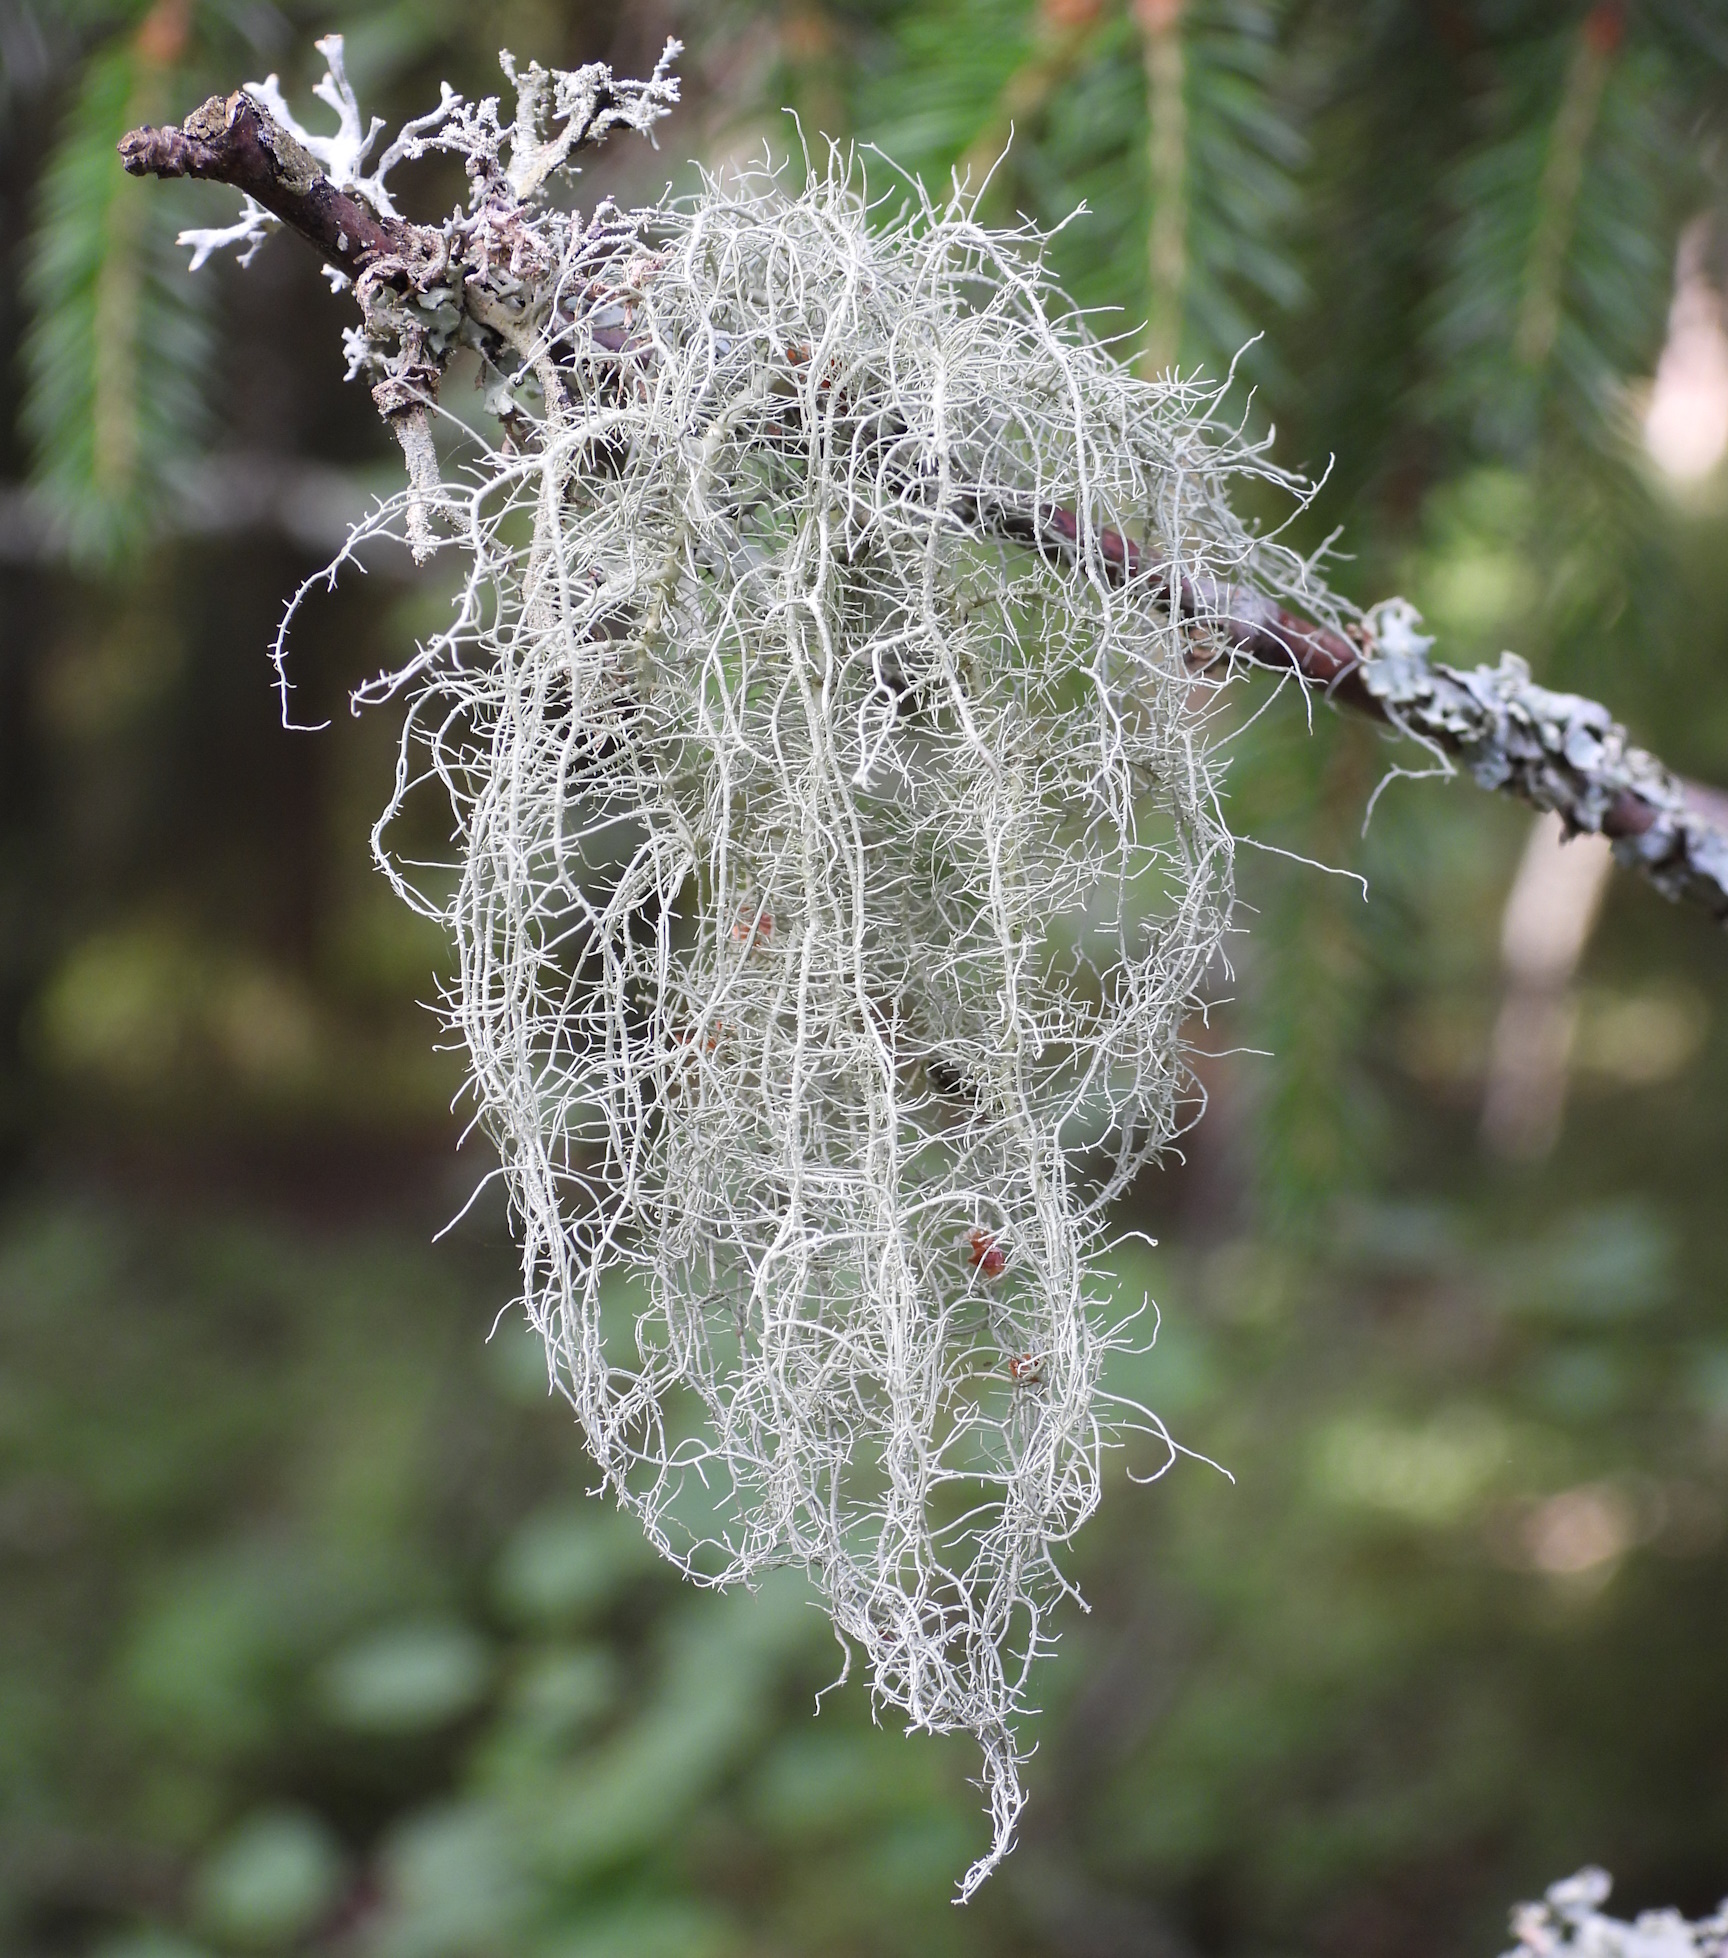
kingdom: Fungi
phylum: Ascomycota
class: Lecanoromycetes
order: Lecanorales
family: Parmeliaceae
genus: Usnea
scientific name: Usnea dasopoga
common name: Fishbone beard lichen
